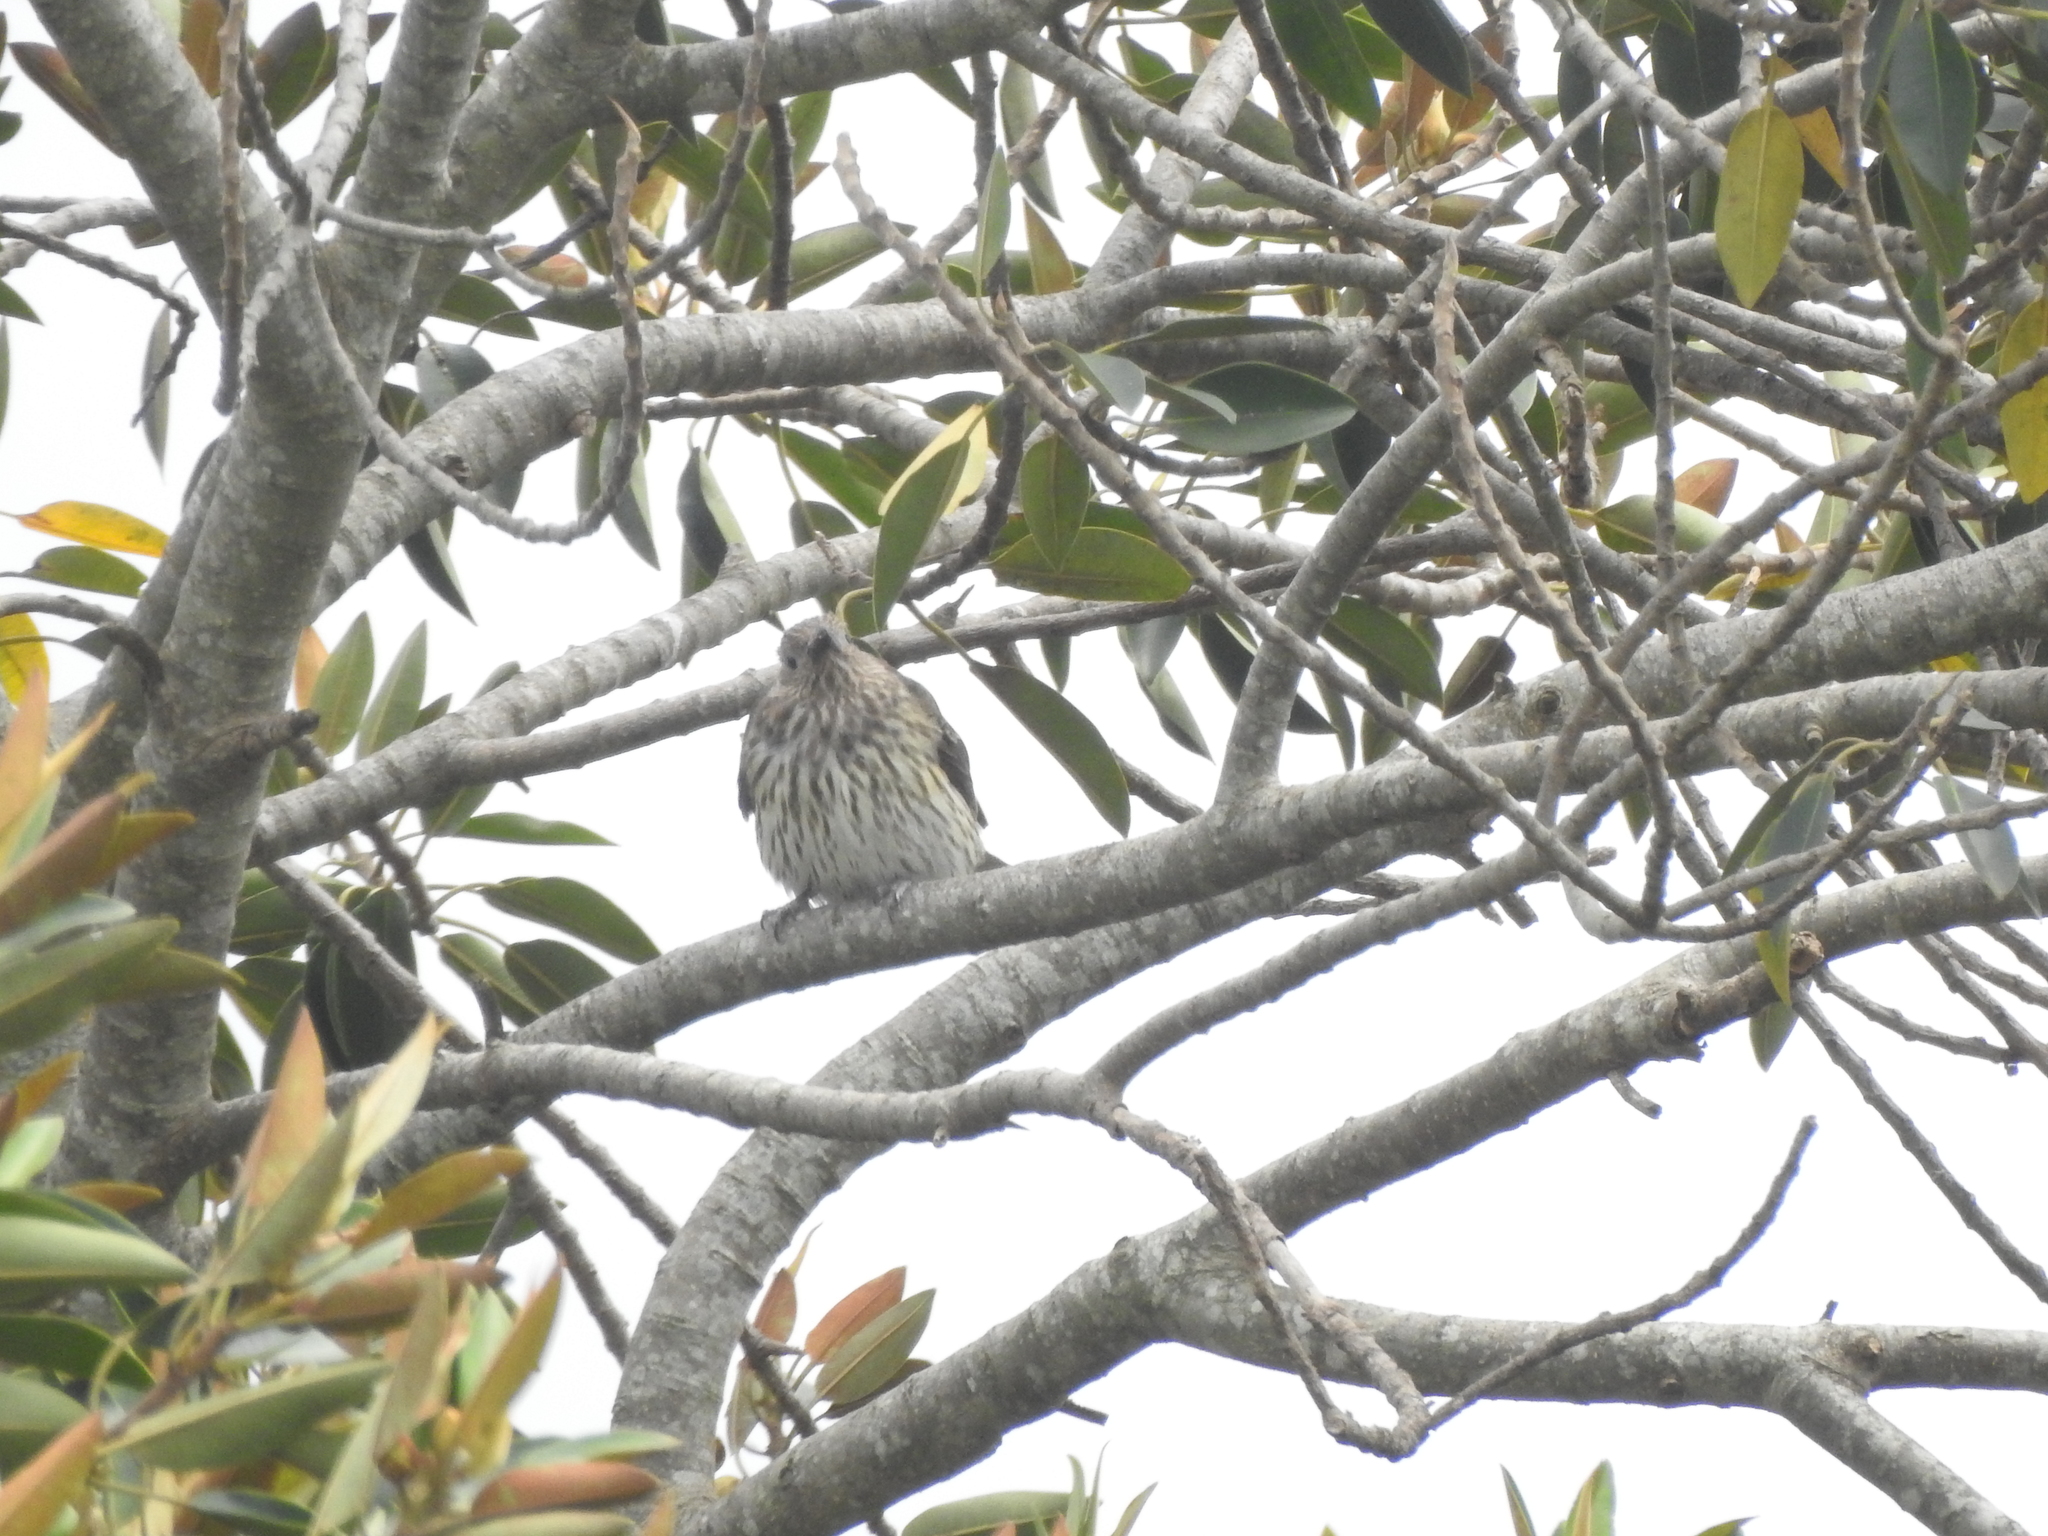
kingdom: Animalia
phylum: Chordata
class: Aves
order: Passeriformes
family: Oriolidae
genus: Sphecotheres
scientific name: Sphecotheres vieilloti
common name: Australasian figbird
